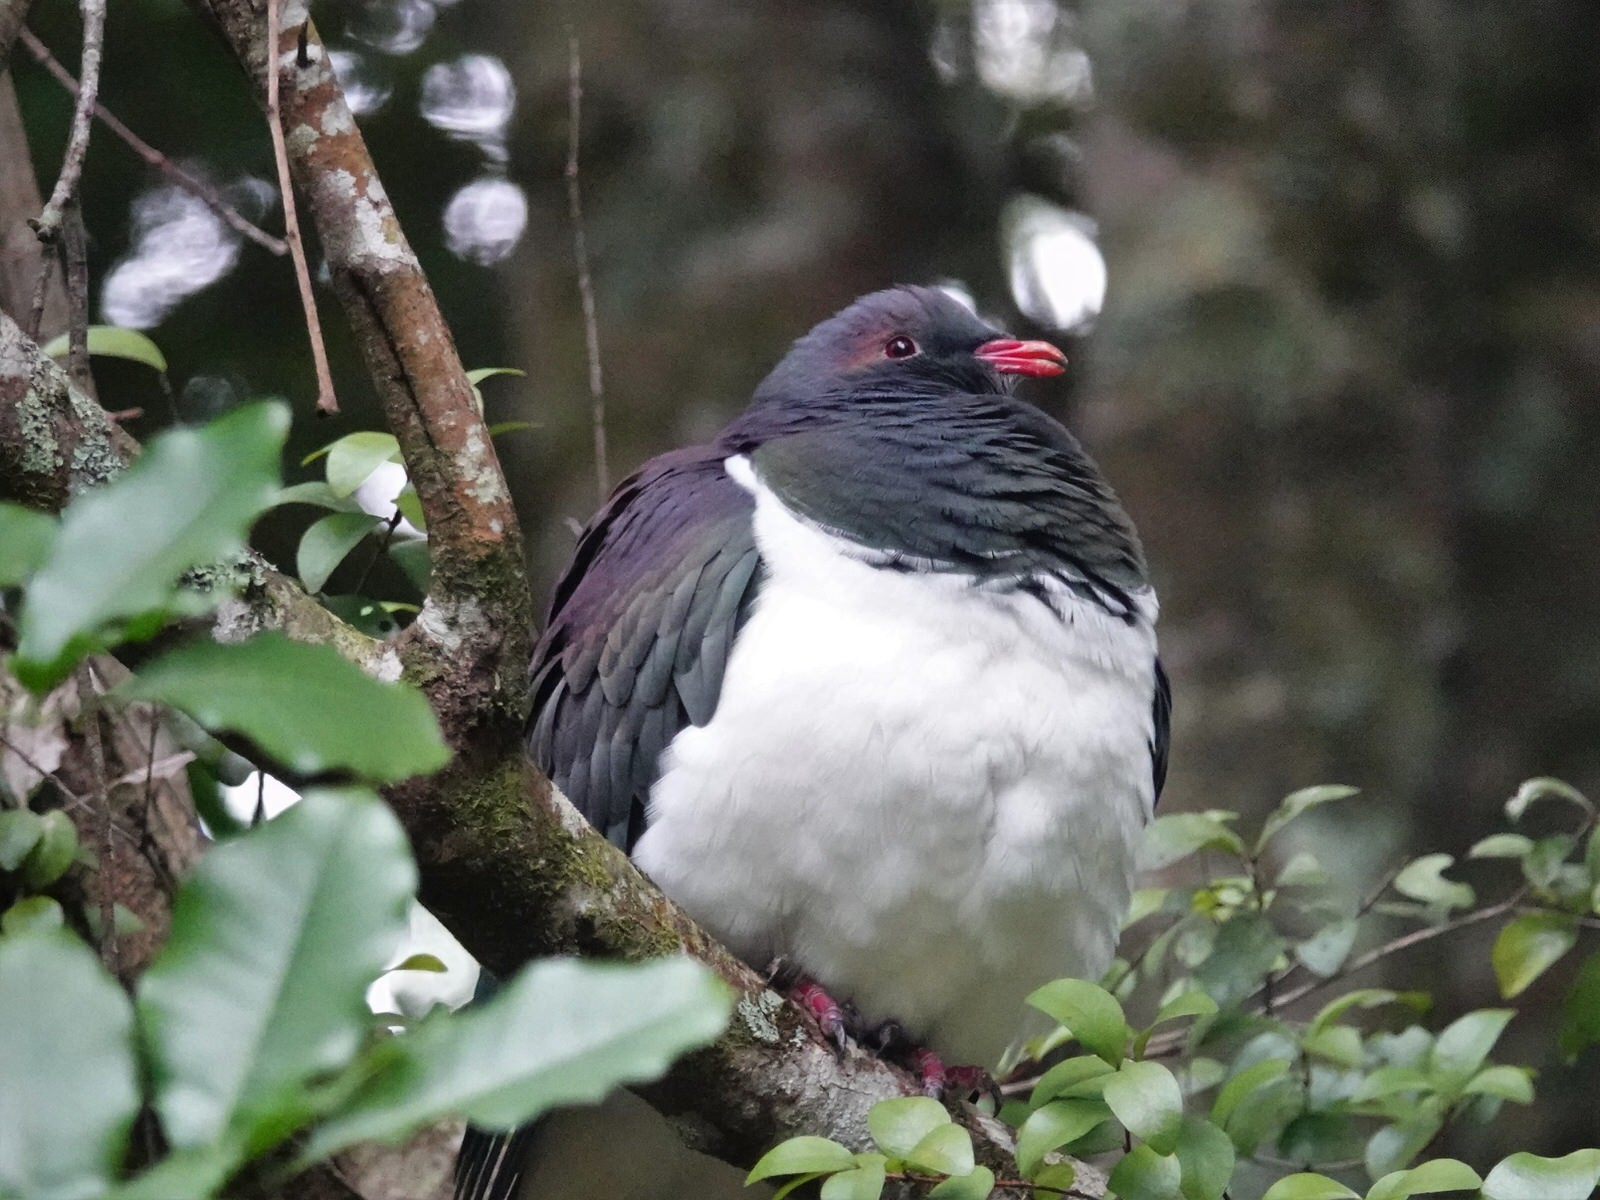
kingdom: Animalia
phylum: Chordata
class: Aves
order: Columbiformes
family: Columbidae
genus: Hemiphaga
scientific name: Hemiphaga novaeseelandiae
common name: New zealand pigeon
